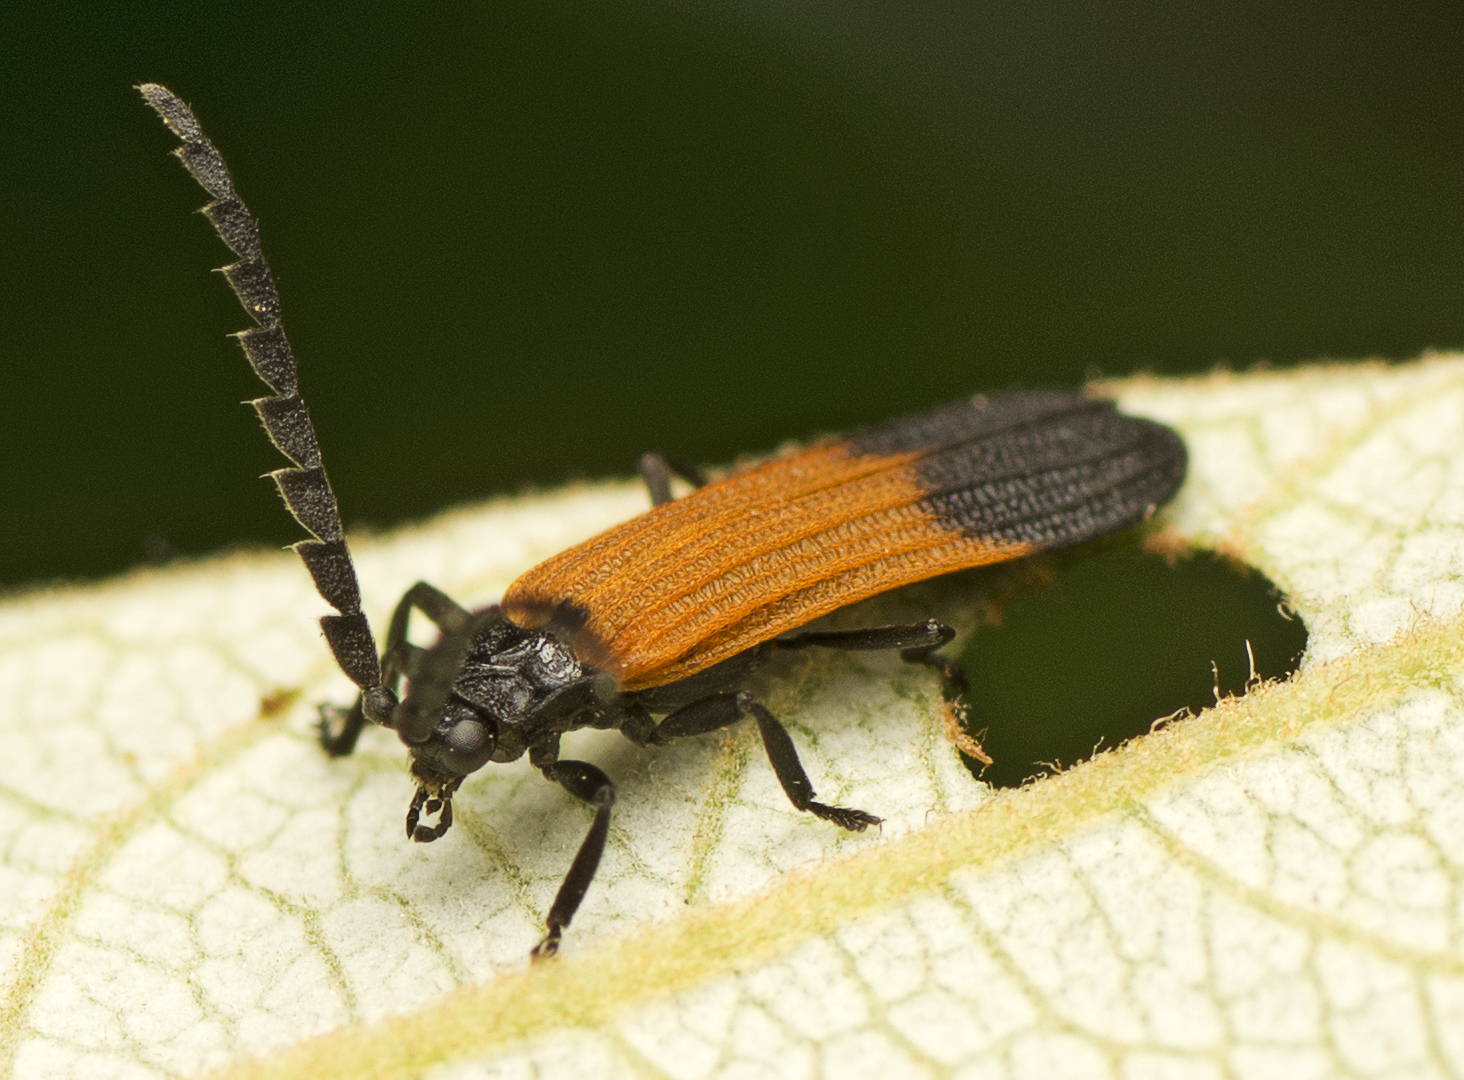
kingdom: Animalia
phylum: Arthropoda
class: Insecta
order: Coleoptera
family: Lycidae
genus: Synchonnus
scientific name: Synchonnus
